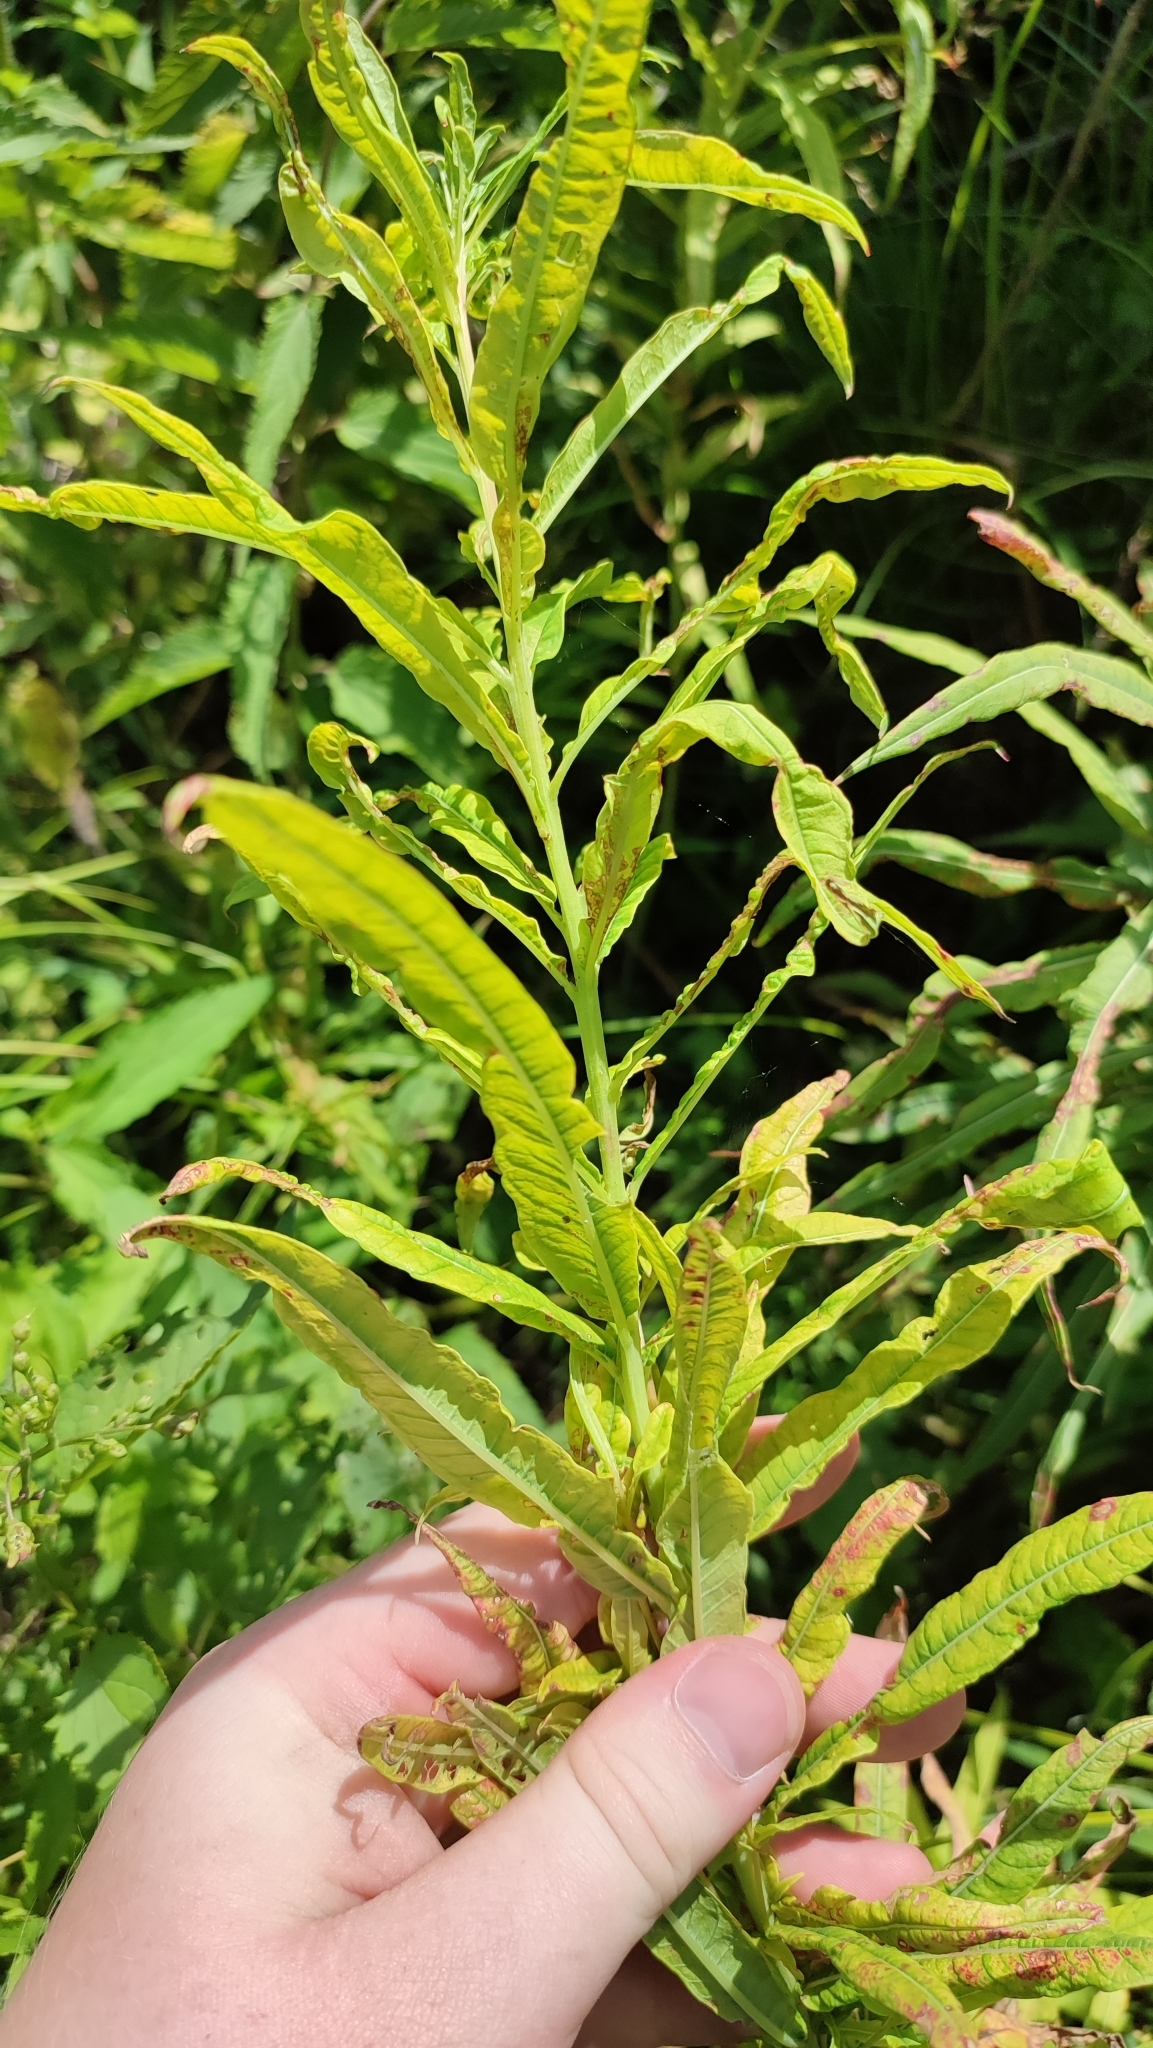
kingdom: Plantae
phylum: Tracheophyta
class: Magnoliopsida
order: Myrtales
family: Onagraceae
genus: Chamaenerion
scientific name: Chamaenerion angustifolium
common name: Fireweed
